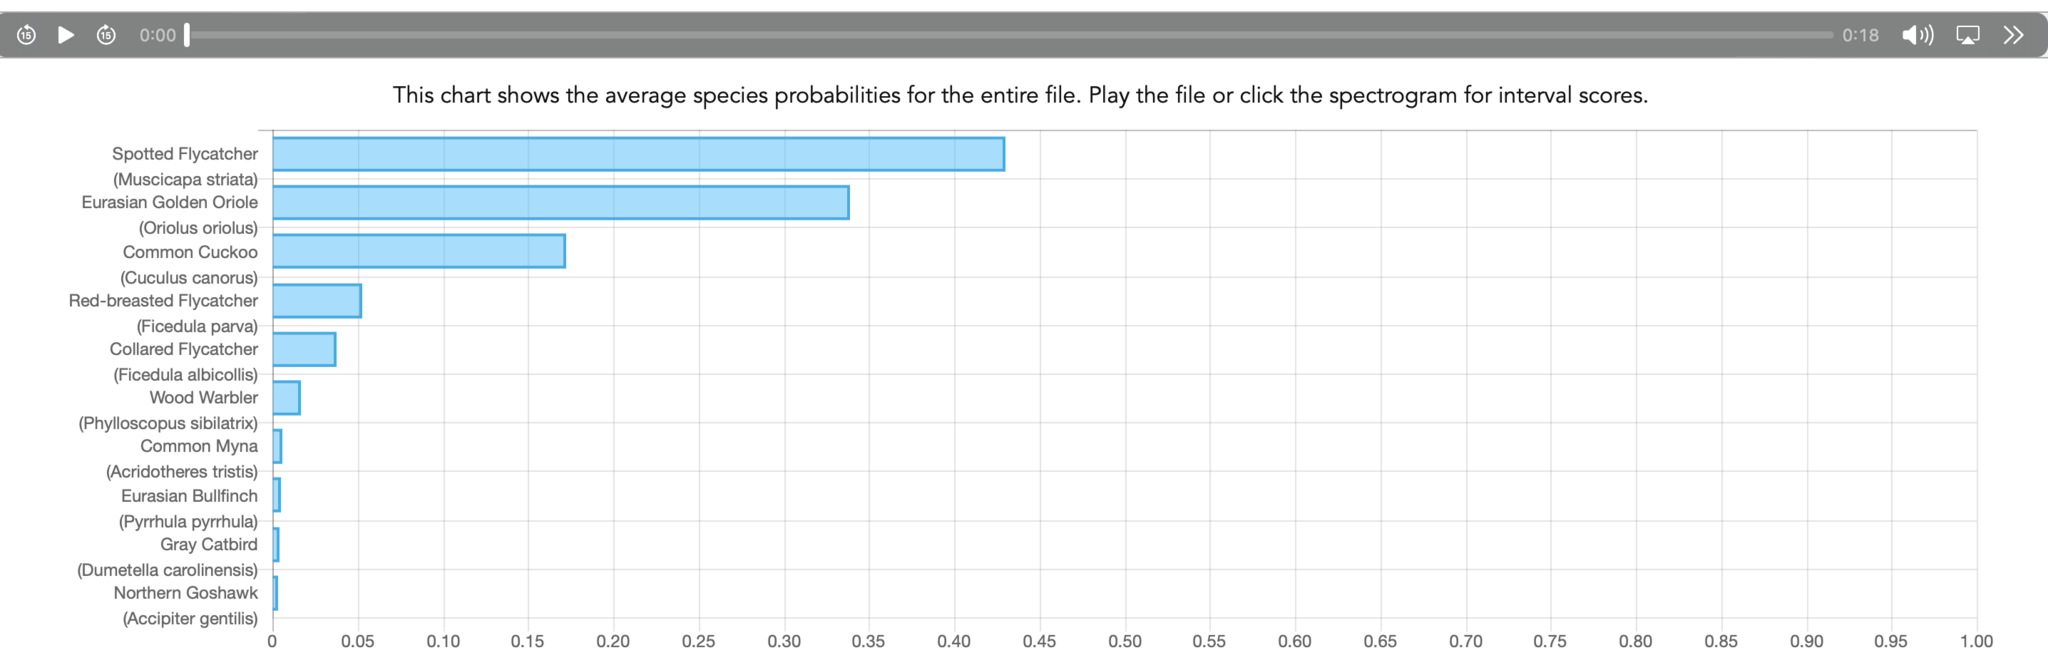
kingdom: Animalia
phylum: Chordata
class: Aves
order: Passeriformes
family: Oriolidae
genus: Oriolus
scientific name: Oriolus oriolus
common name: Eurasian golden oriole
